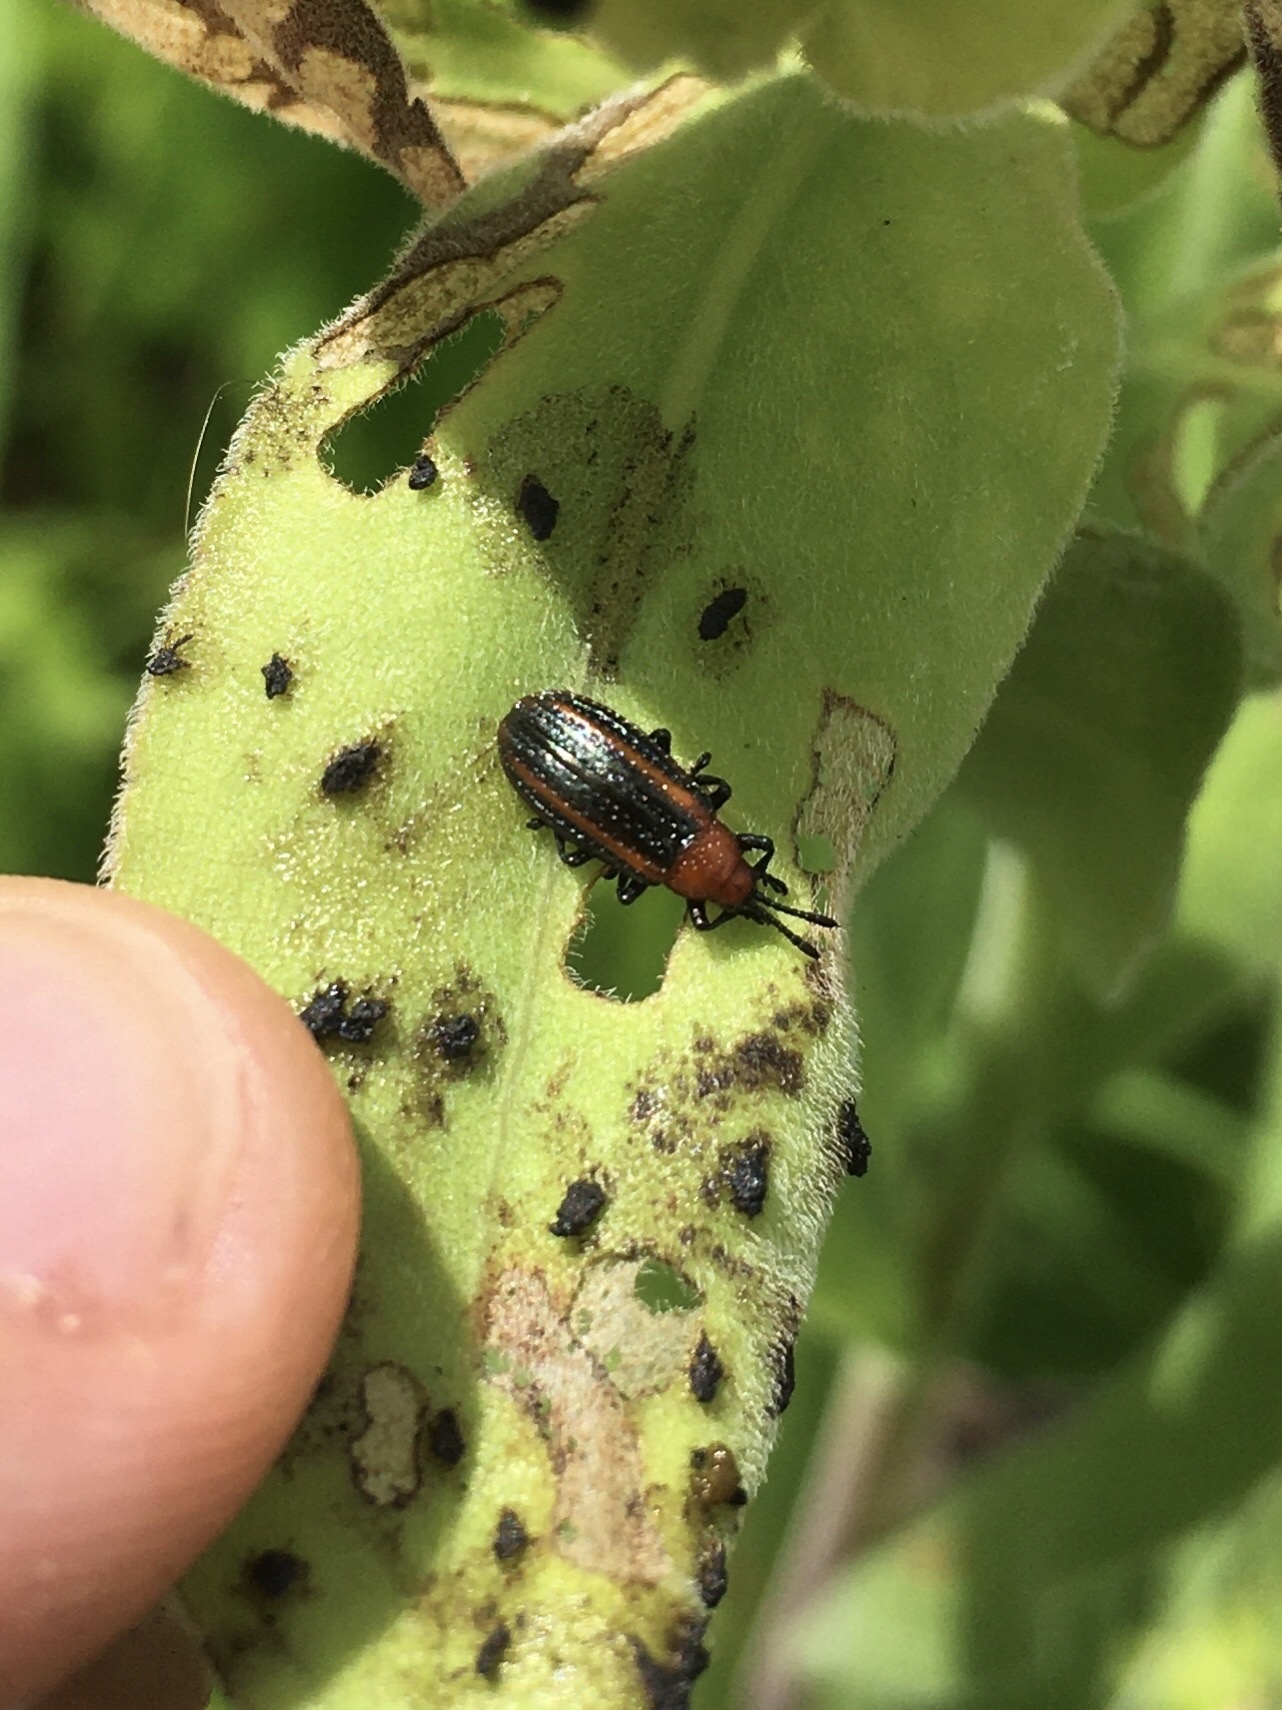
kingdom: Animalia
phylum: Arthropoda
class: Insecta
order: Coleoptera
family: Chrysomelidae
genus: Microrhopala
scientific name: Microrhopala vittata
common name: Goldenrod leaf miner beetle
